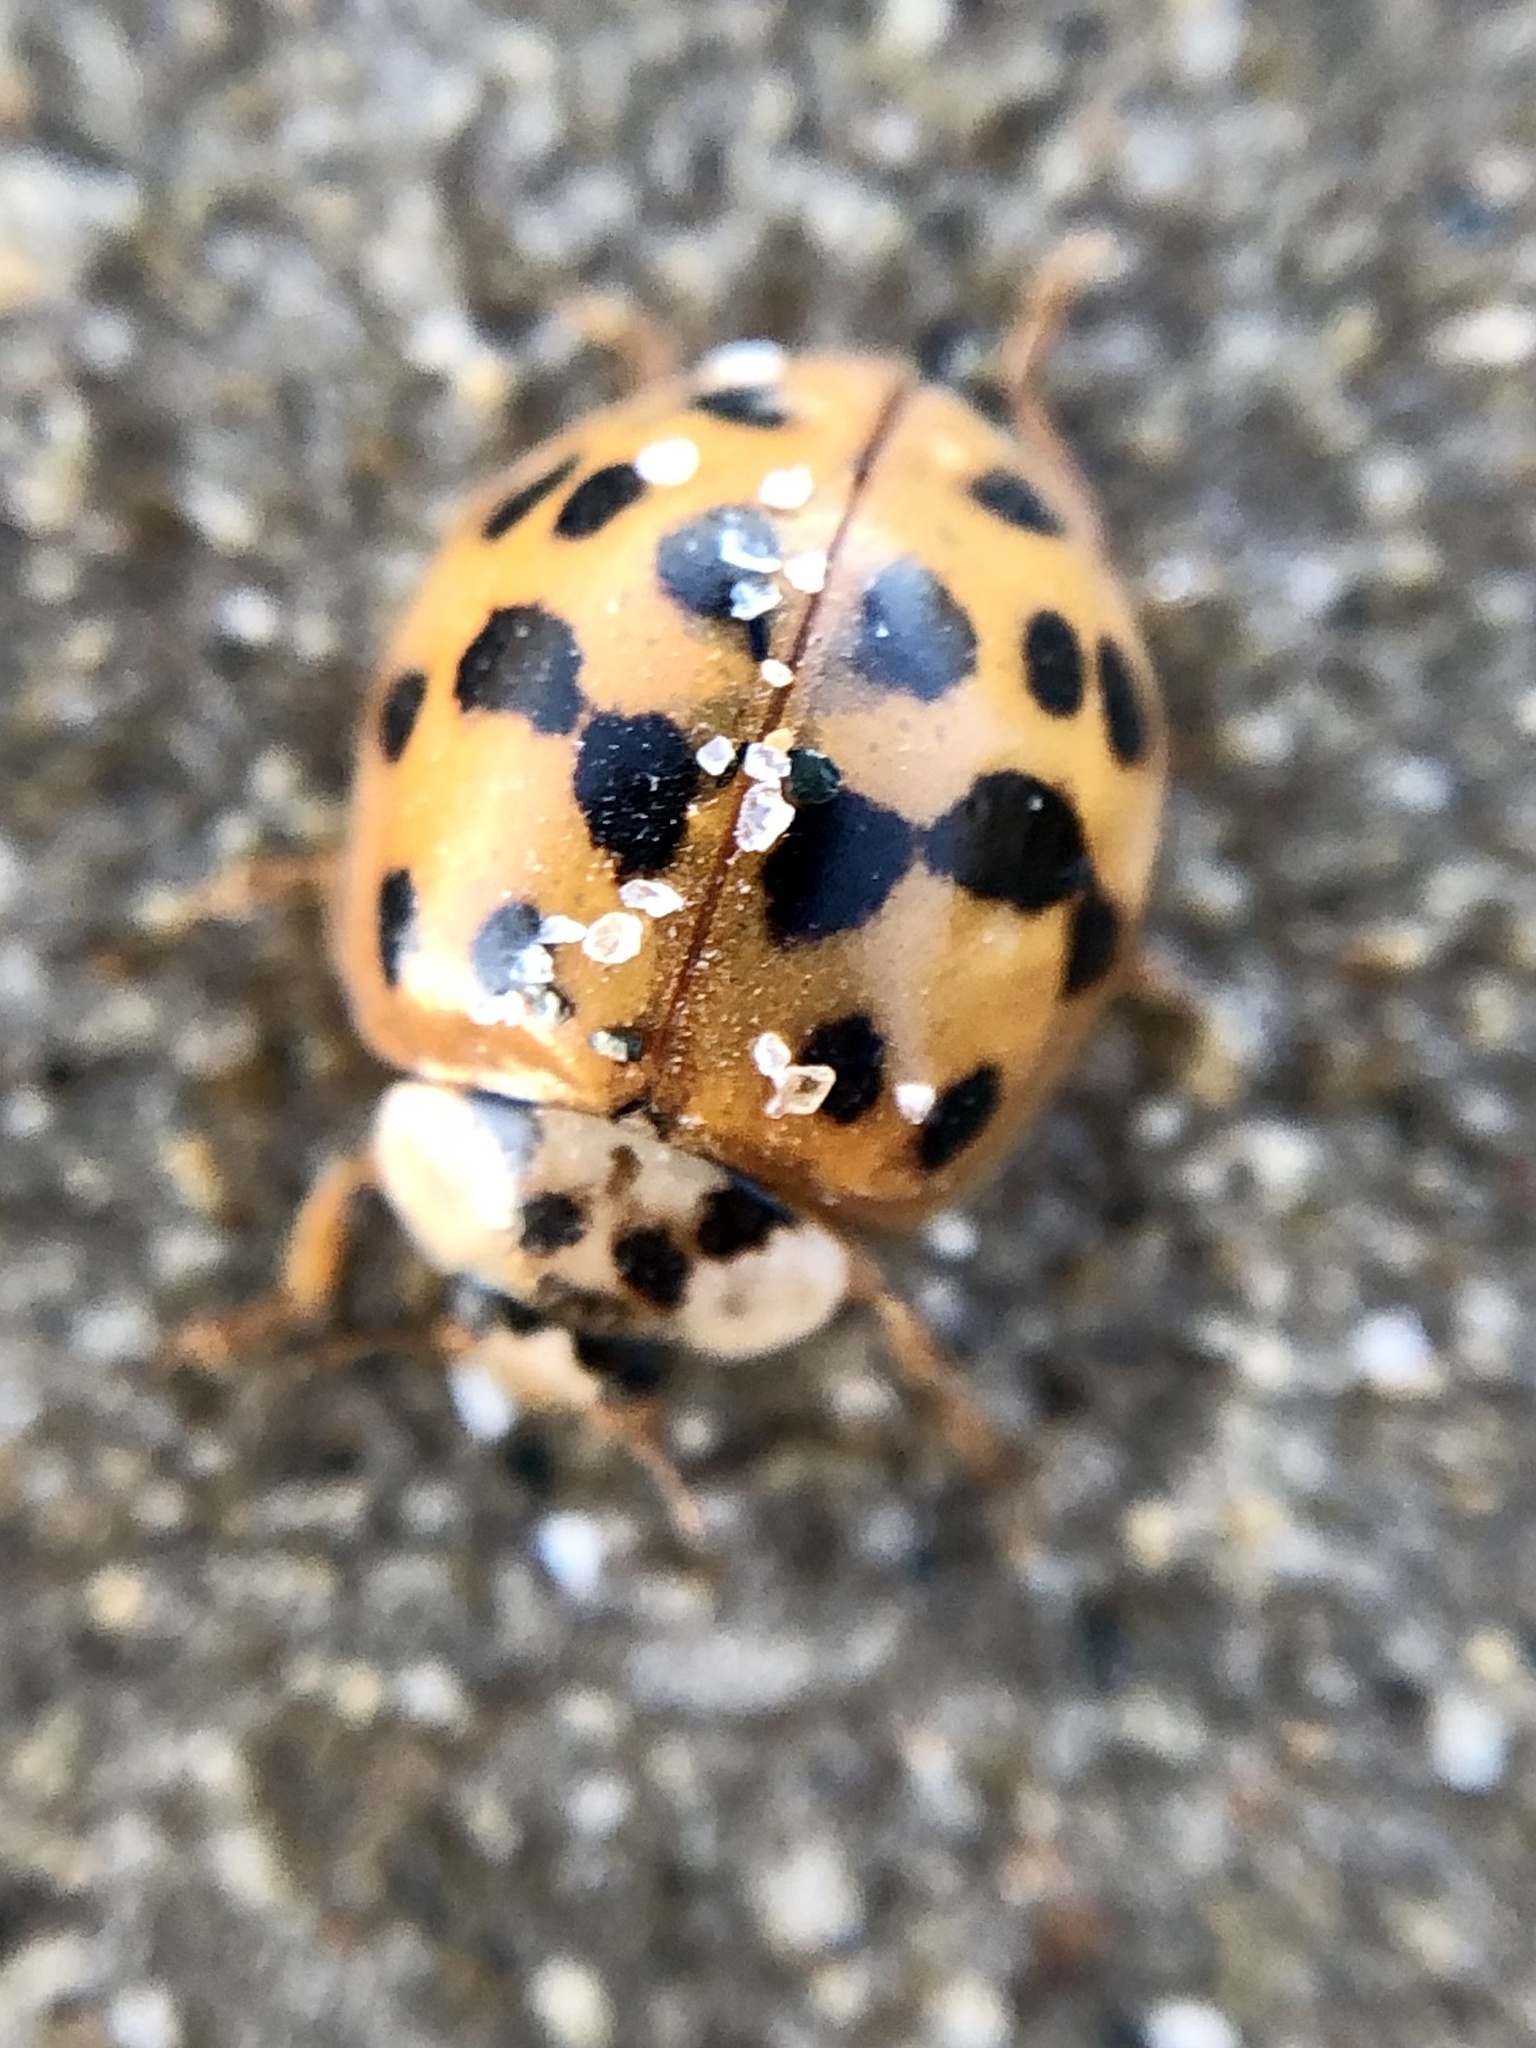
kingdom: Animalia
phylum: Arthropoda
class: Insecta
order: Coleoptera
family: Coccinellidae
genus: Harmonia
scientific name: Harmonia axyridis
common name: Harlequin ladybird
